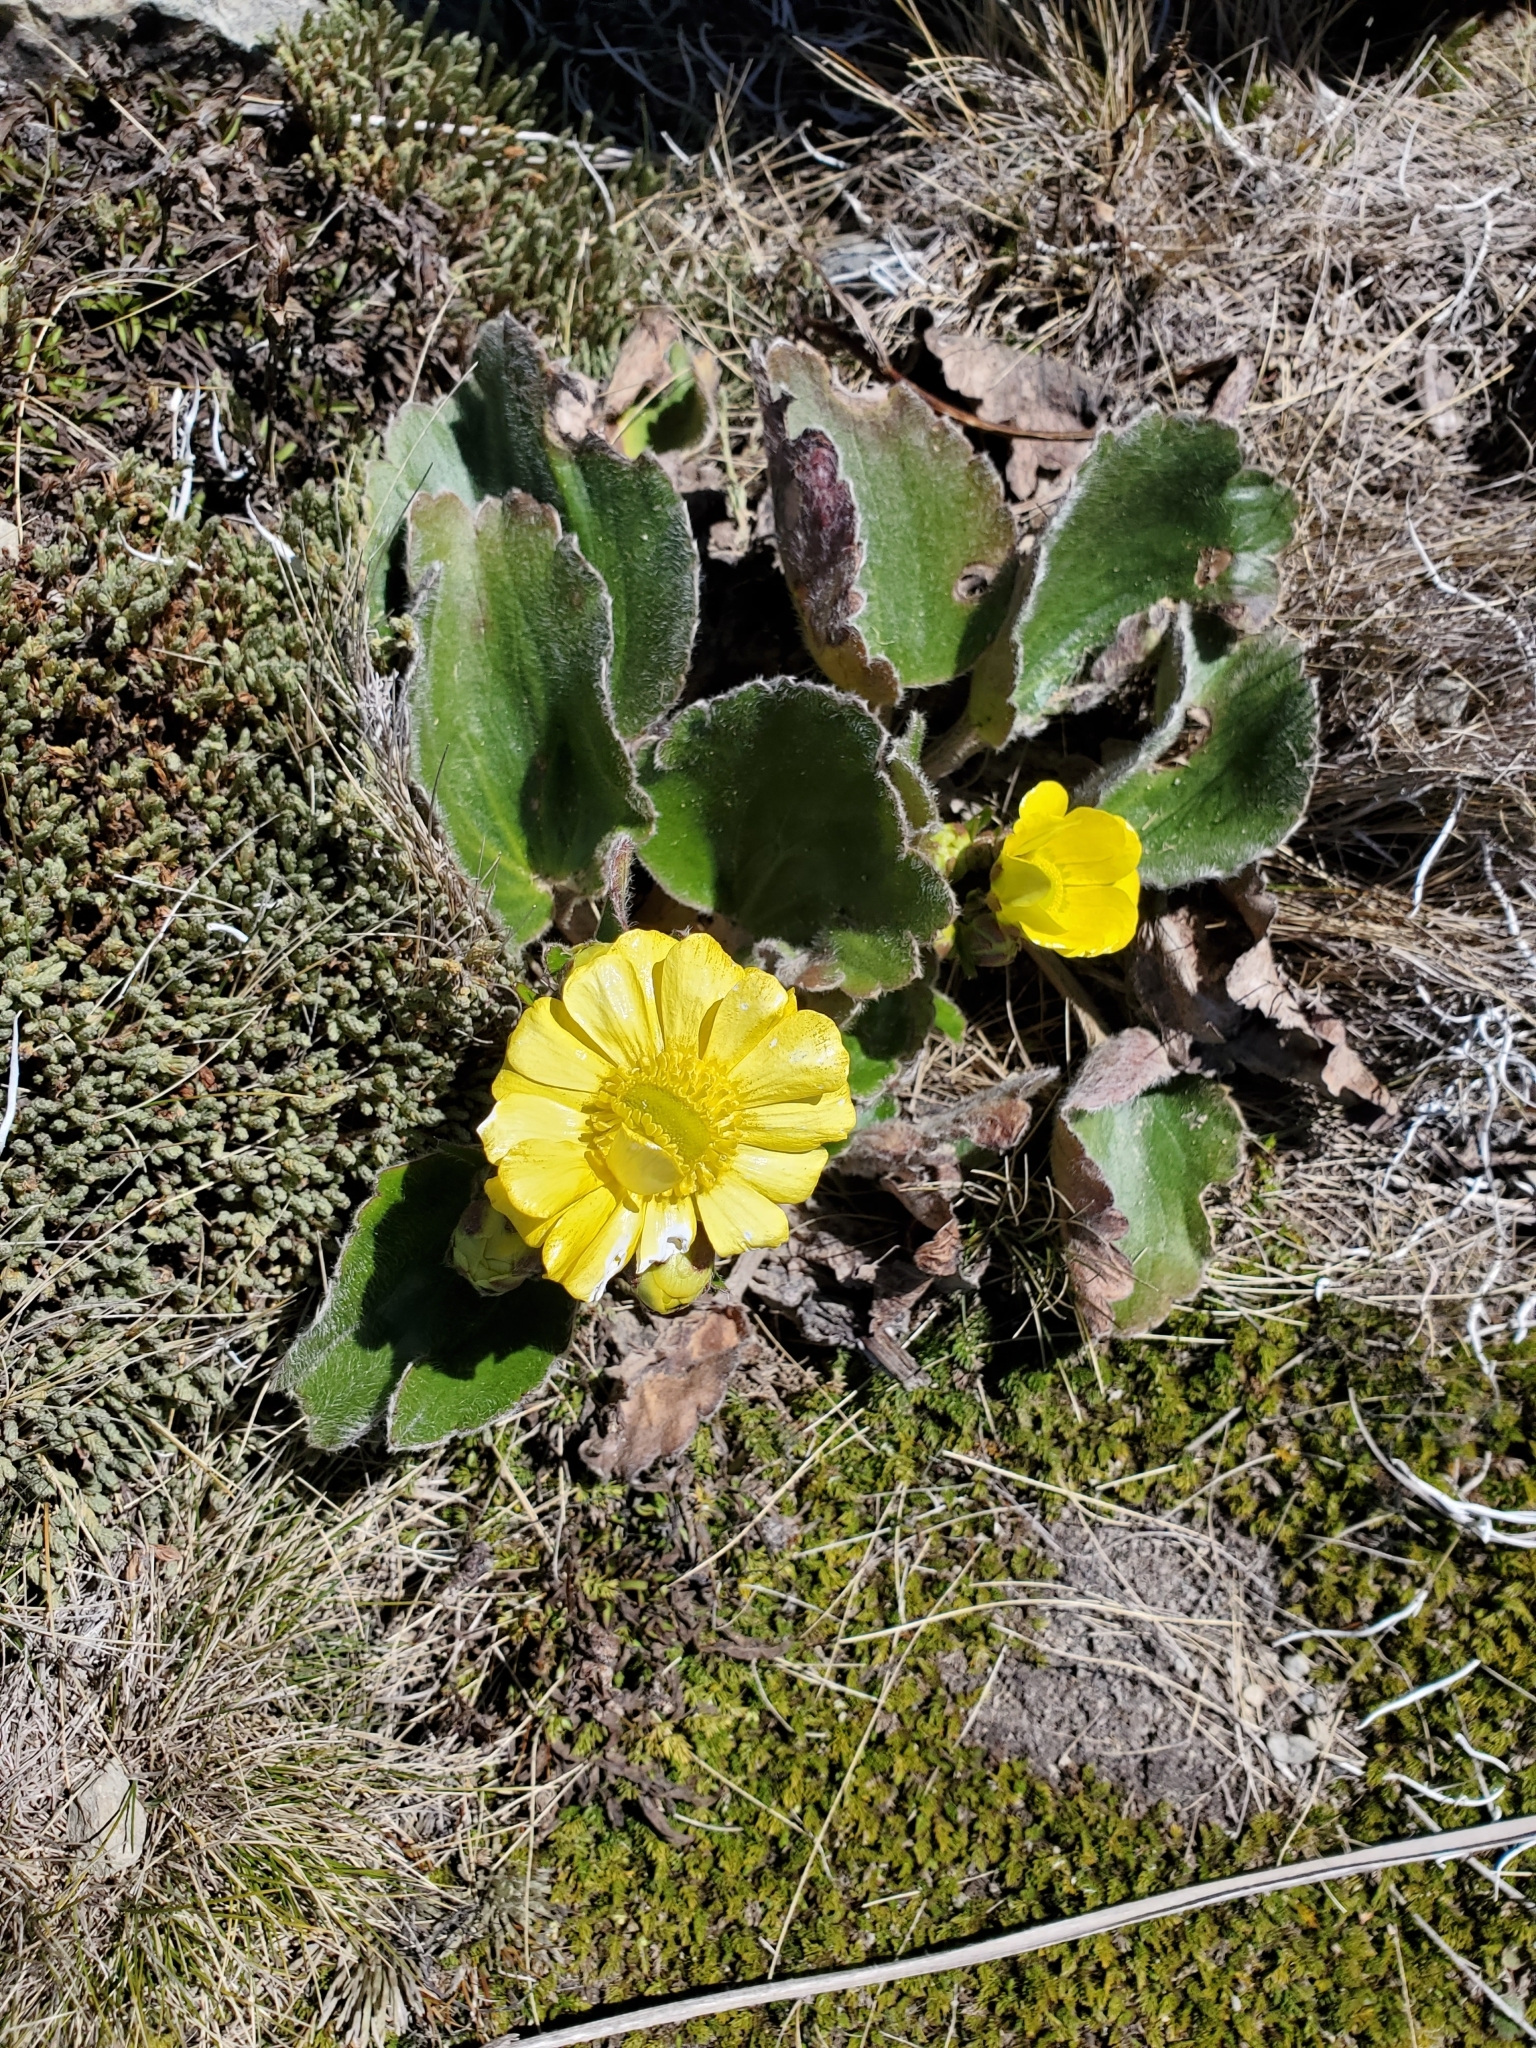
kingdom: Plantae
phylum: Tracheophyta
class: Magnoliopsida
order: Ranunculales
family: Ranunculaceae
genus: Ranunculus
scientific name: Ranunculus insignis
